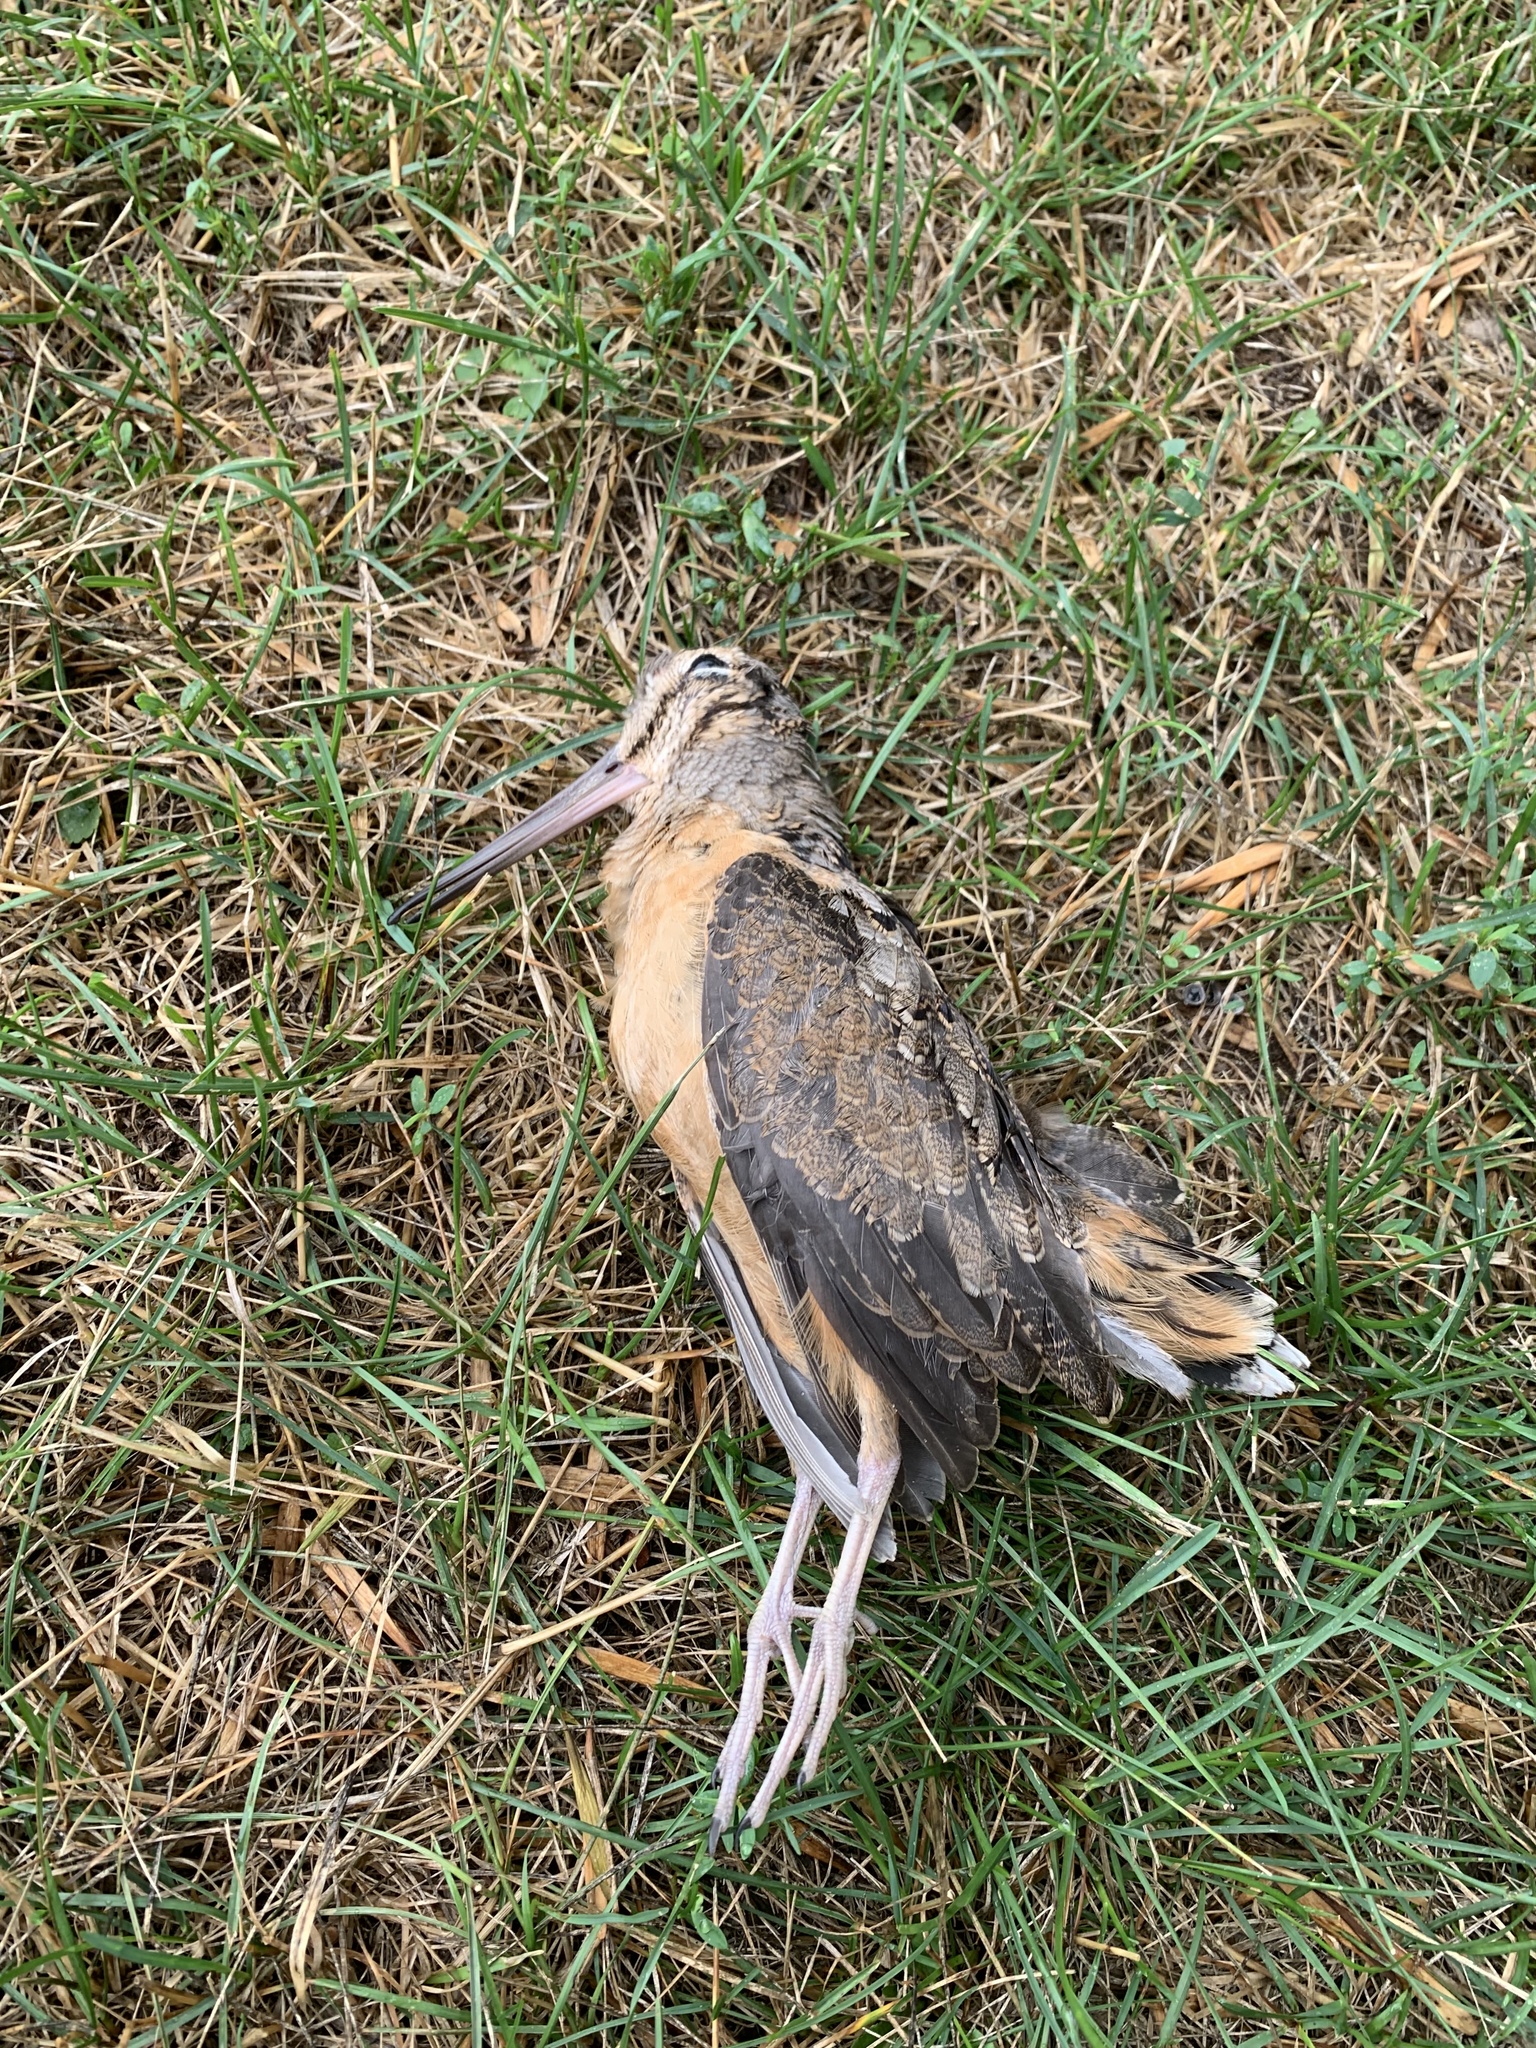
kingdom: Animalia
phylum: Chordata
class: Aves
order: Charadriiformes
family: Scolopacidae
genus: Scolopax
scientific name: Scolopax minor
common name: American woodcock
